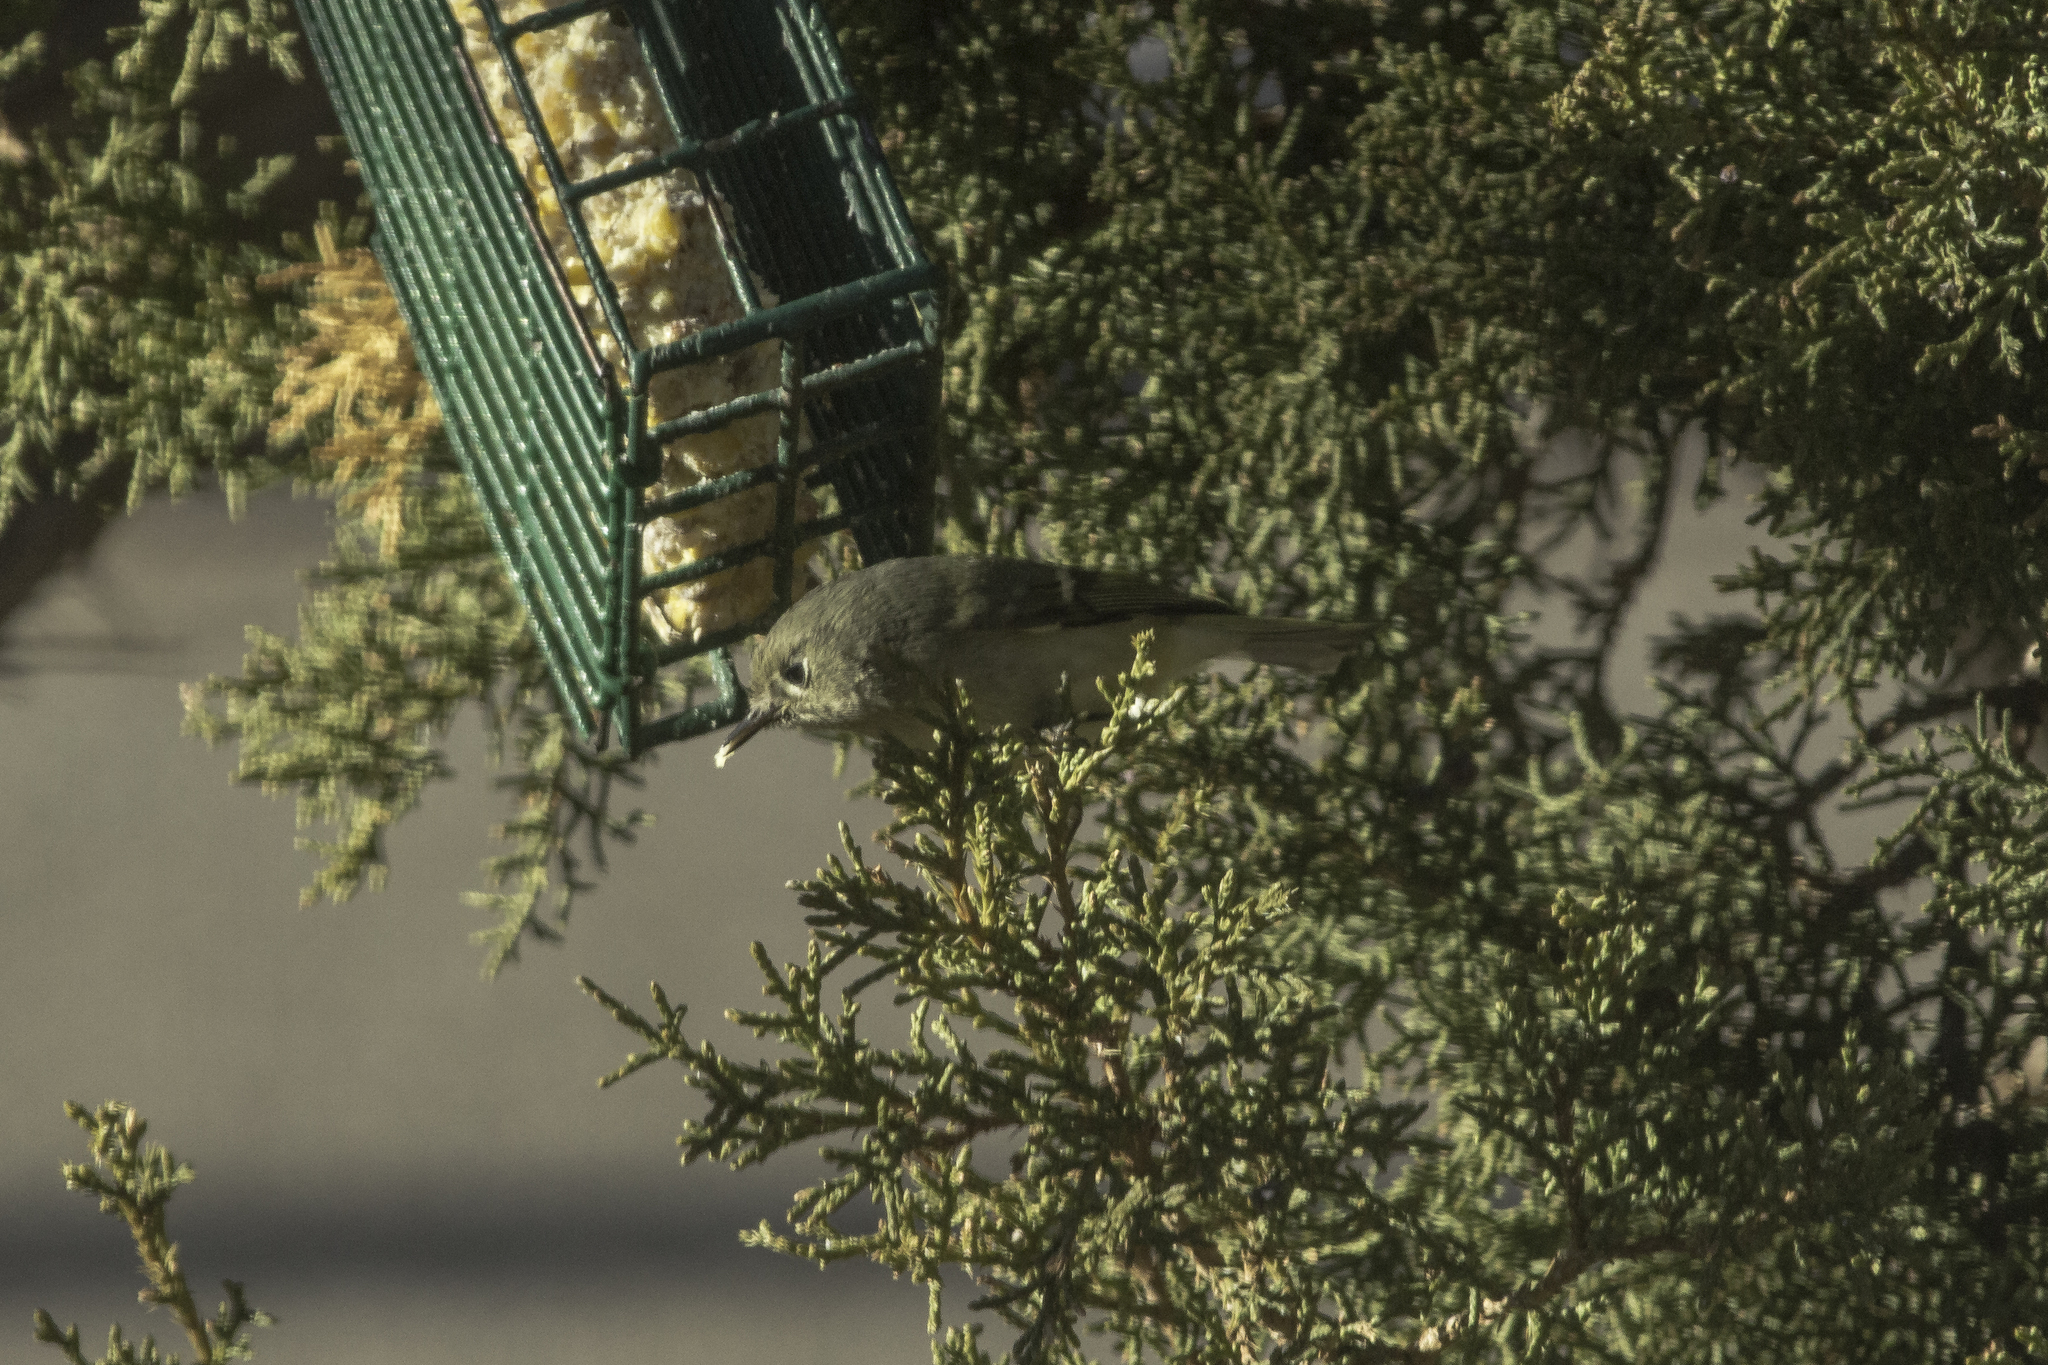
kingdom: Animalia
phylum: Chordata
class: Aves
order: Passeriformes
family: Regulidae
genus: Regulus
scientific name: Regulus calendula
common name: Ruby-crowned kinglet
